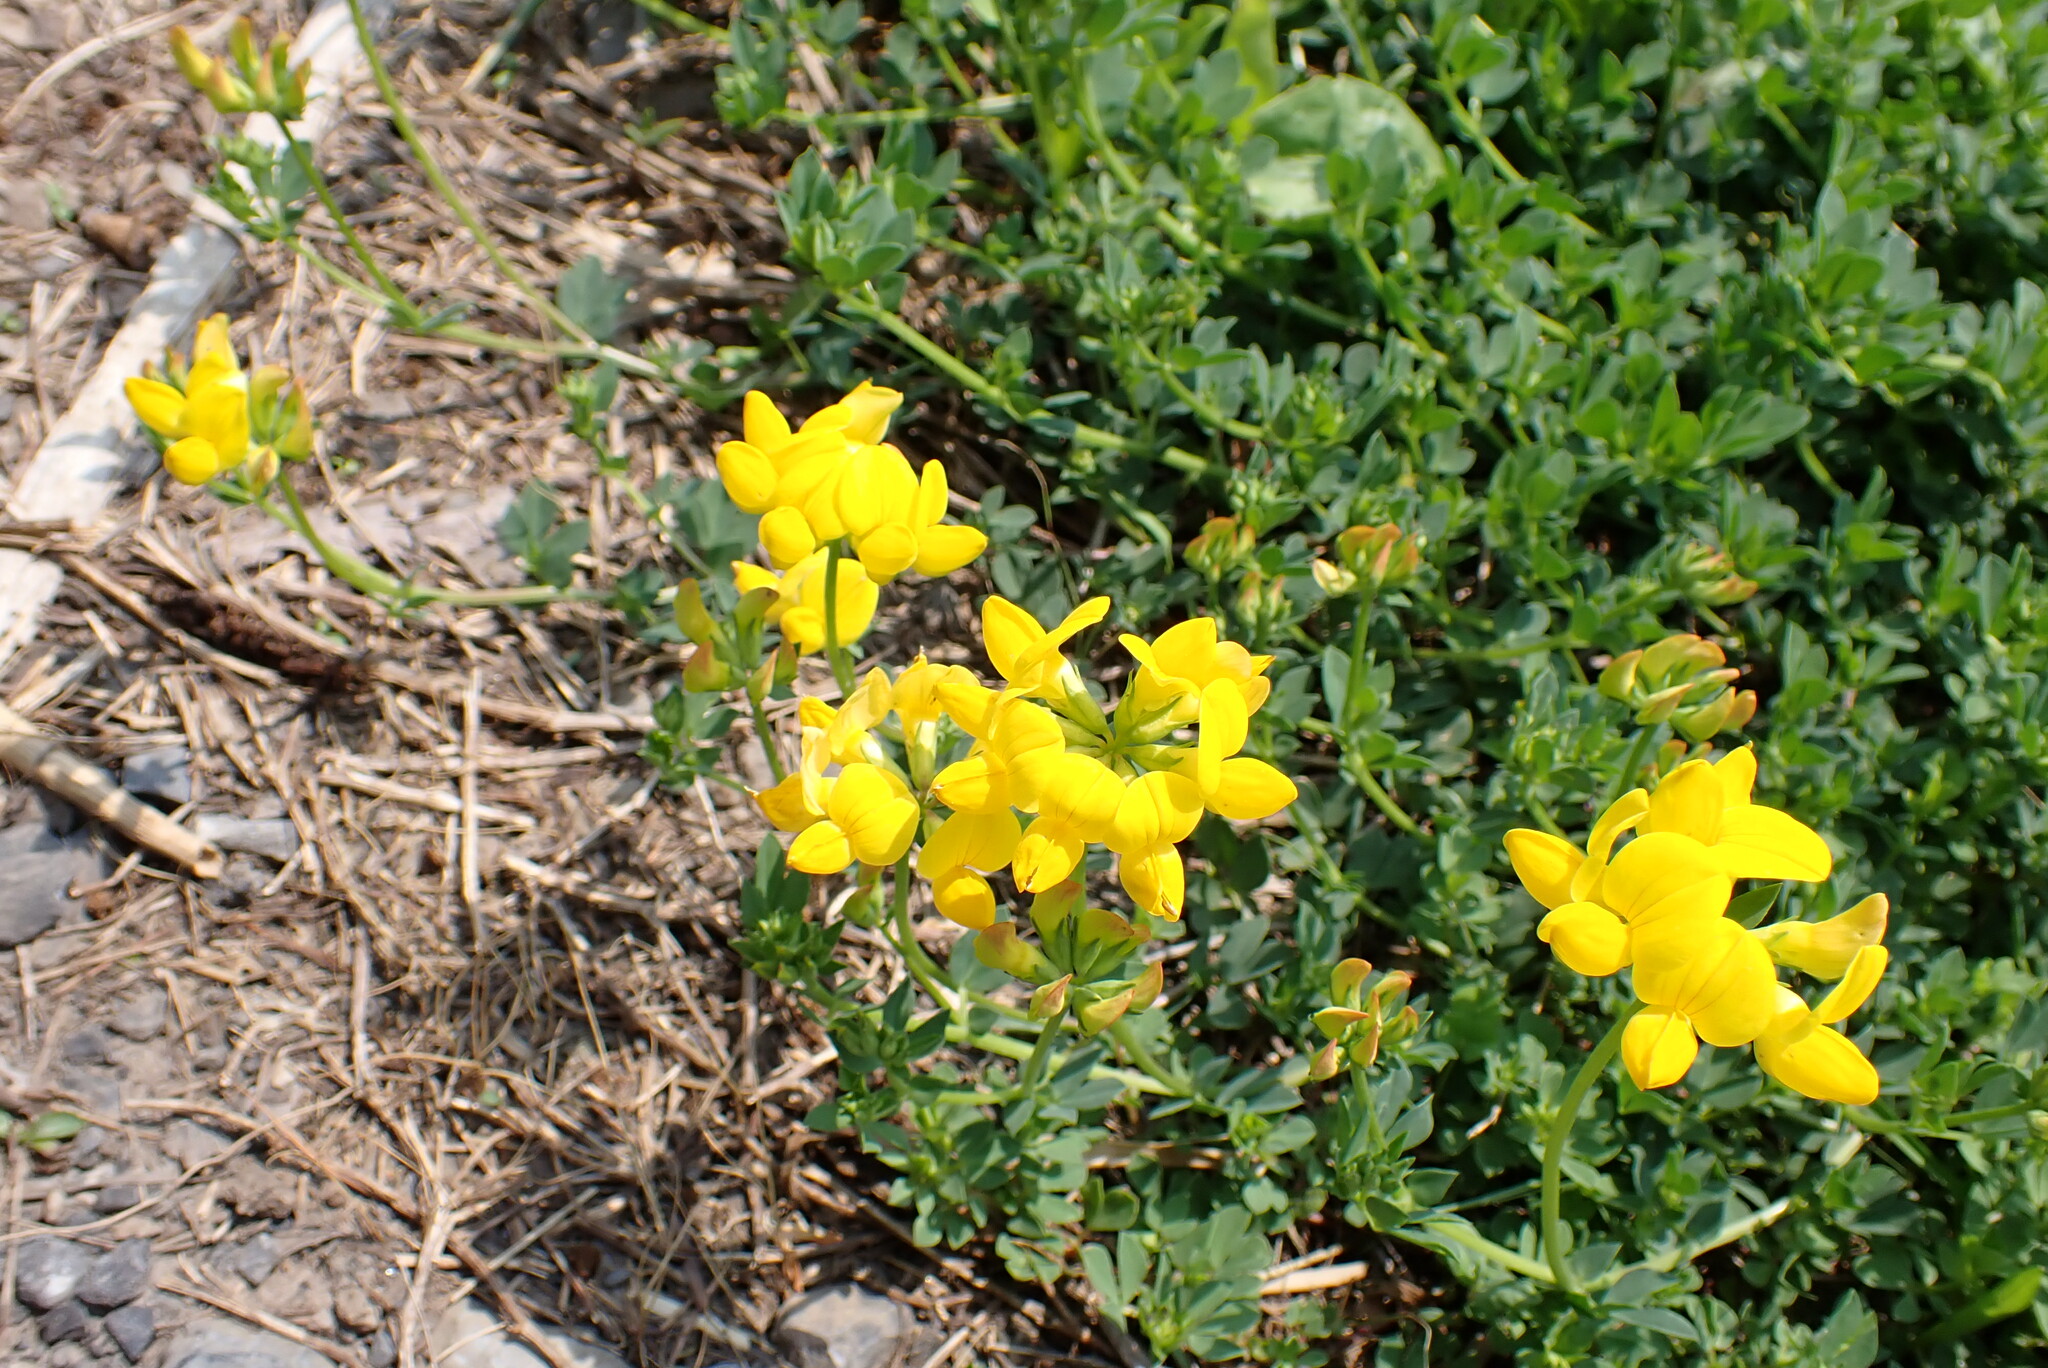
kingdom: Plantae
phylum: Tracheophyta
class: Magnoliopsida
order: Fabales
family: Fabaceae
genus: Lotus
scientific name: Lotus corniculatus
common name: Common bird's-foot-trefoil
